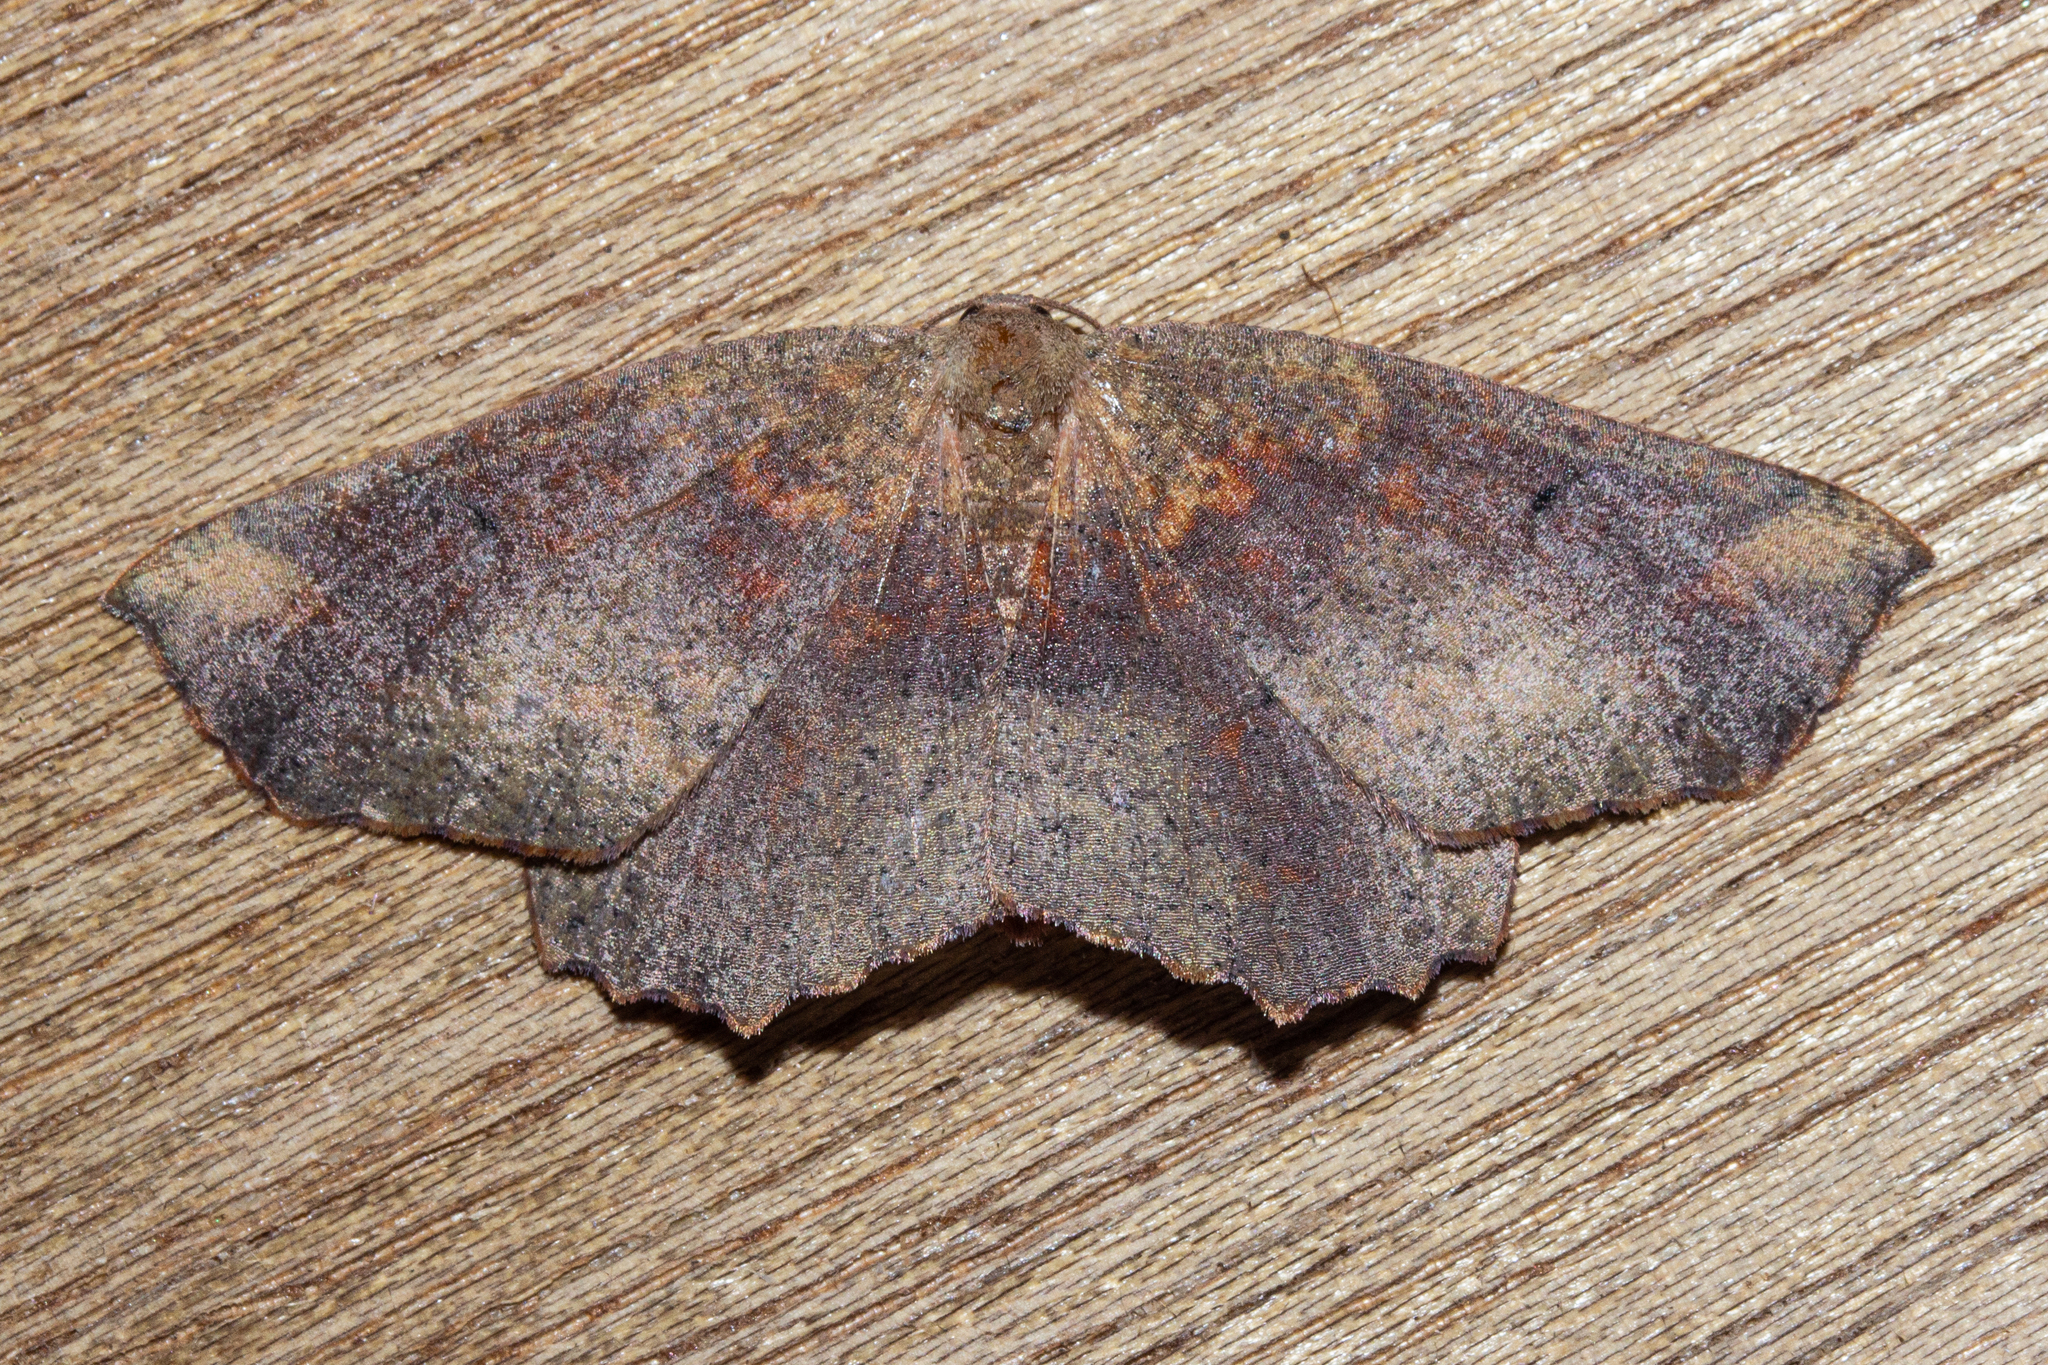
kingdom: Animalia
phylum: Arthropoda
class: Insecta
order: Lepidoptera
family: Geometridae
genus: Xyridacma
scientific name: Xyridacma ustaria
